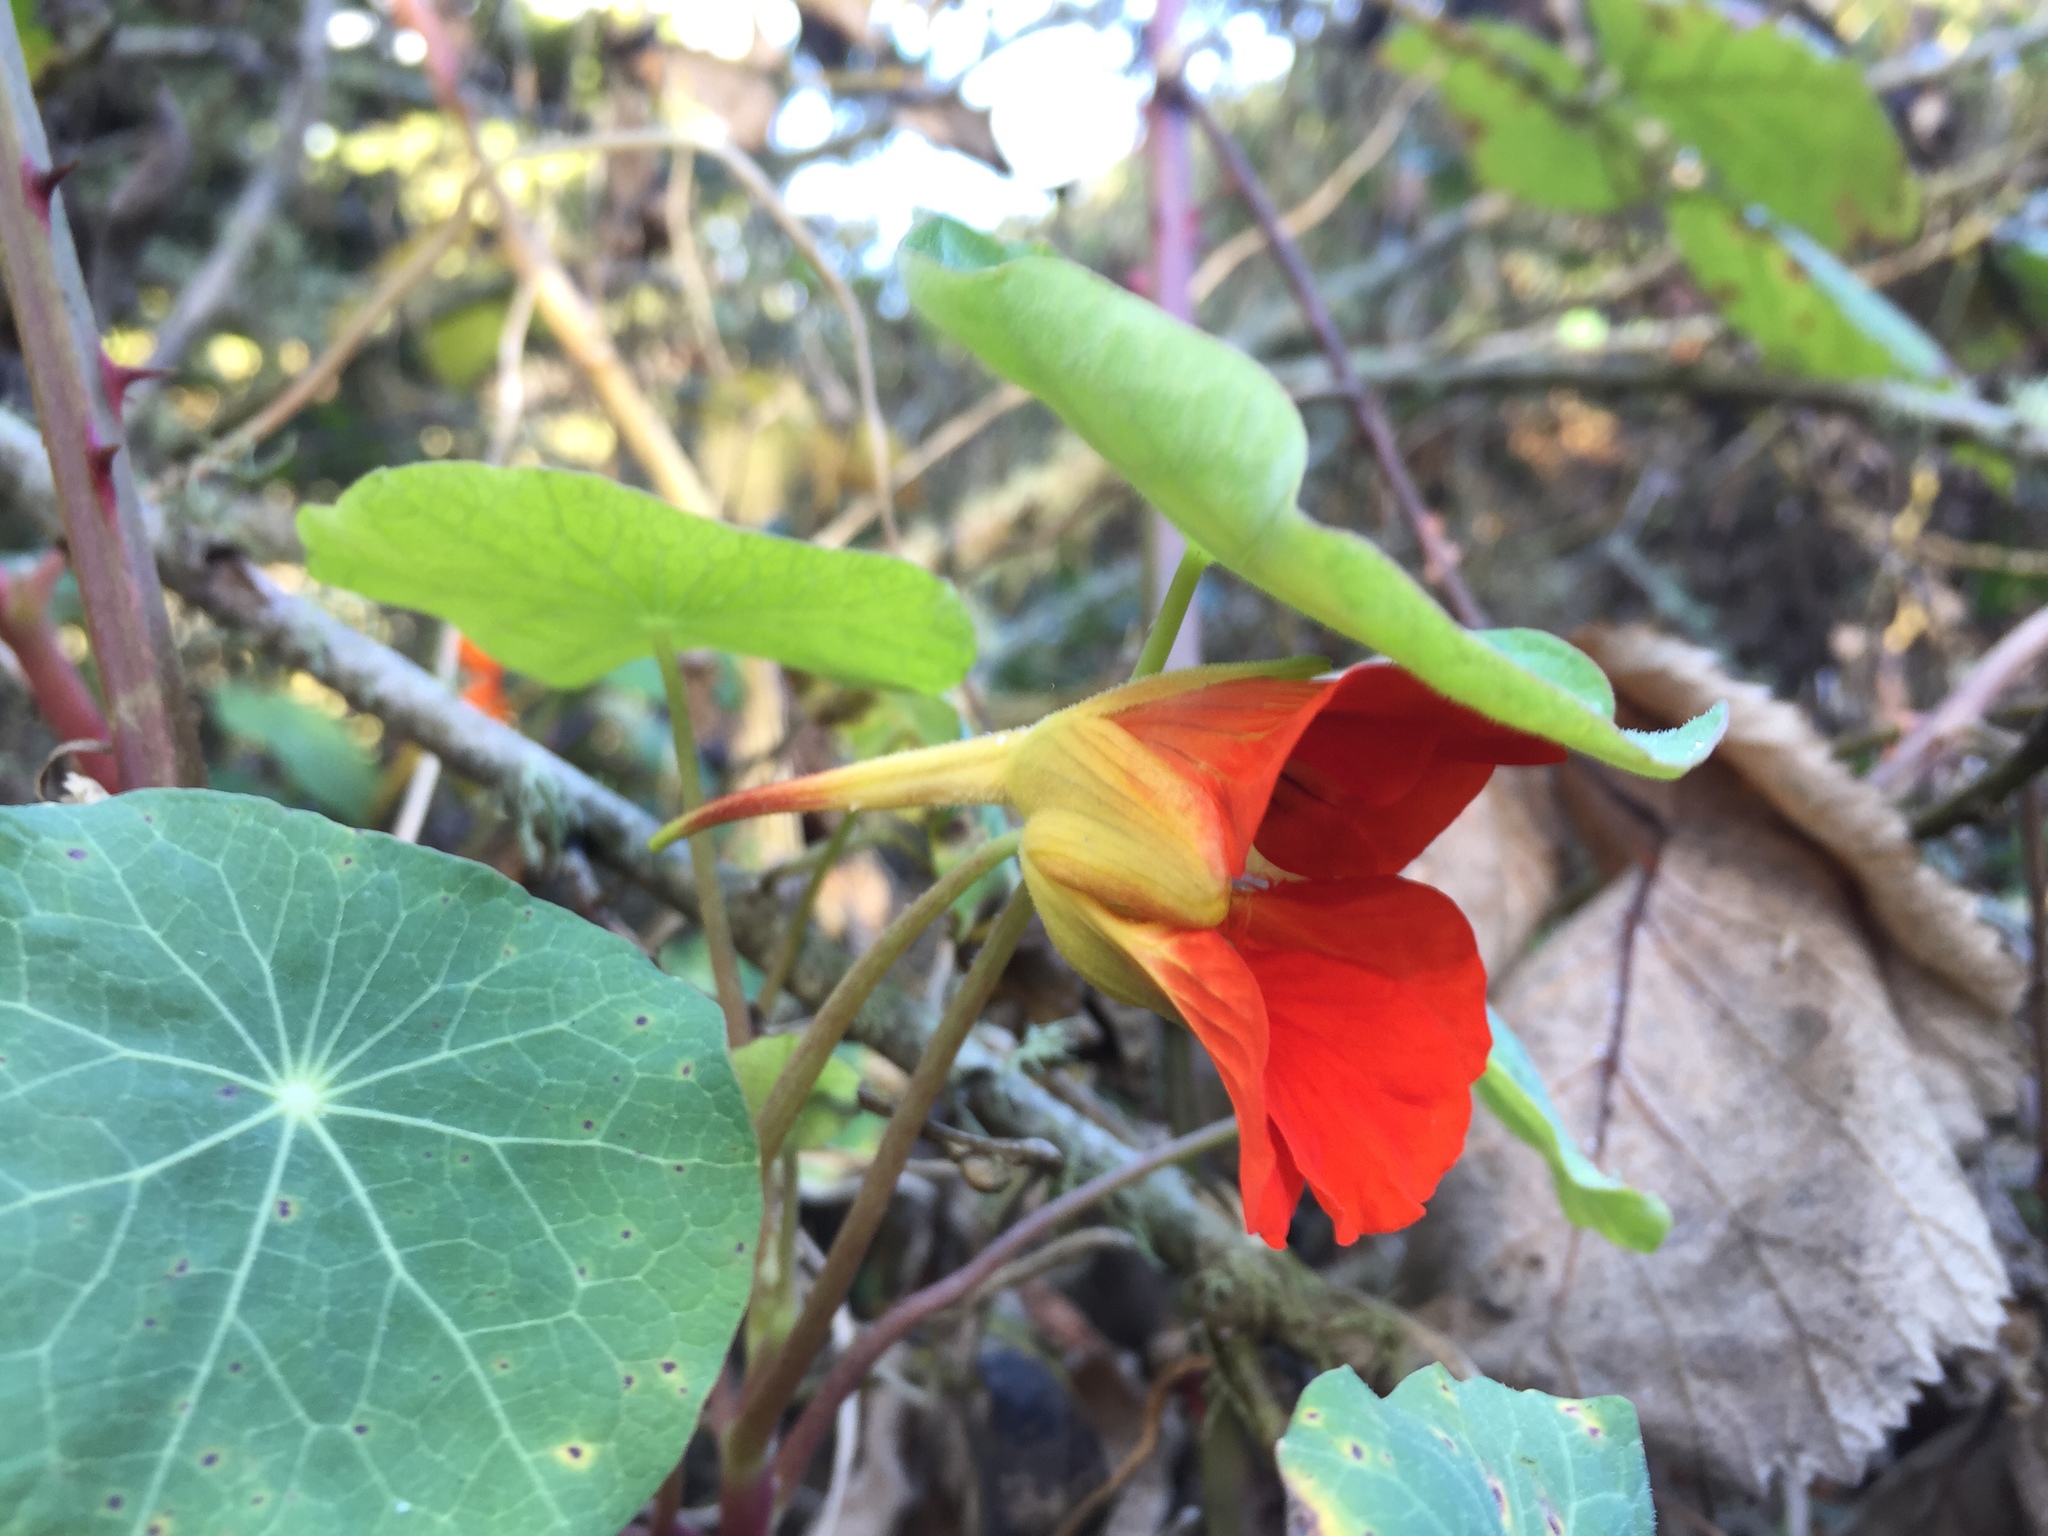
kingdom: Plantae
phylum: Tracheophyta
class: Magnoliopsida
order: Brassicales
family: Tropaeolaceae
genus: Tropaeolum
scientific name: Tropaeolum majus
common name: Nasturtium
